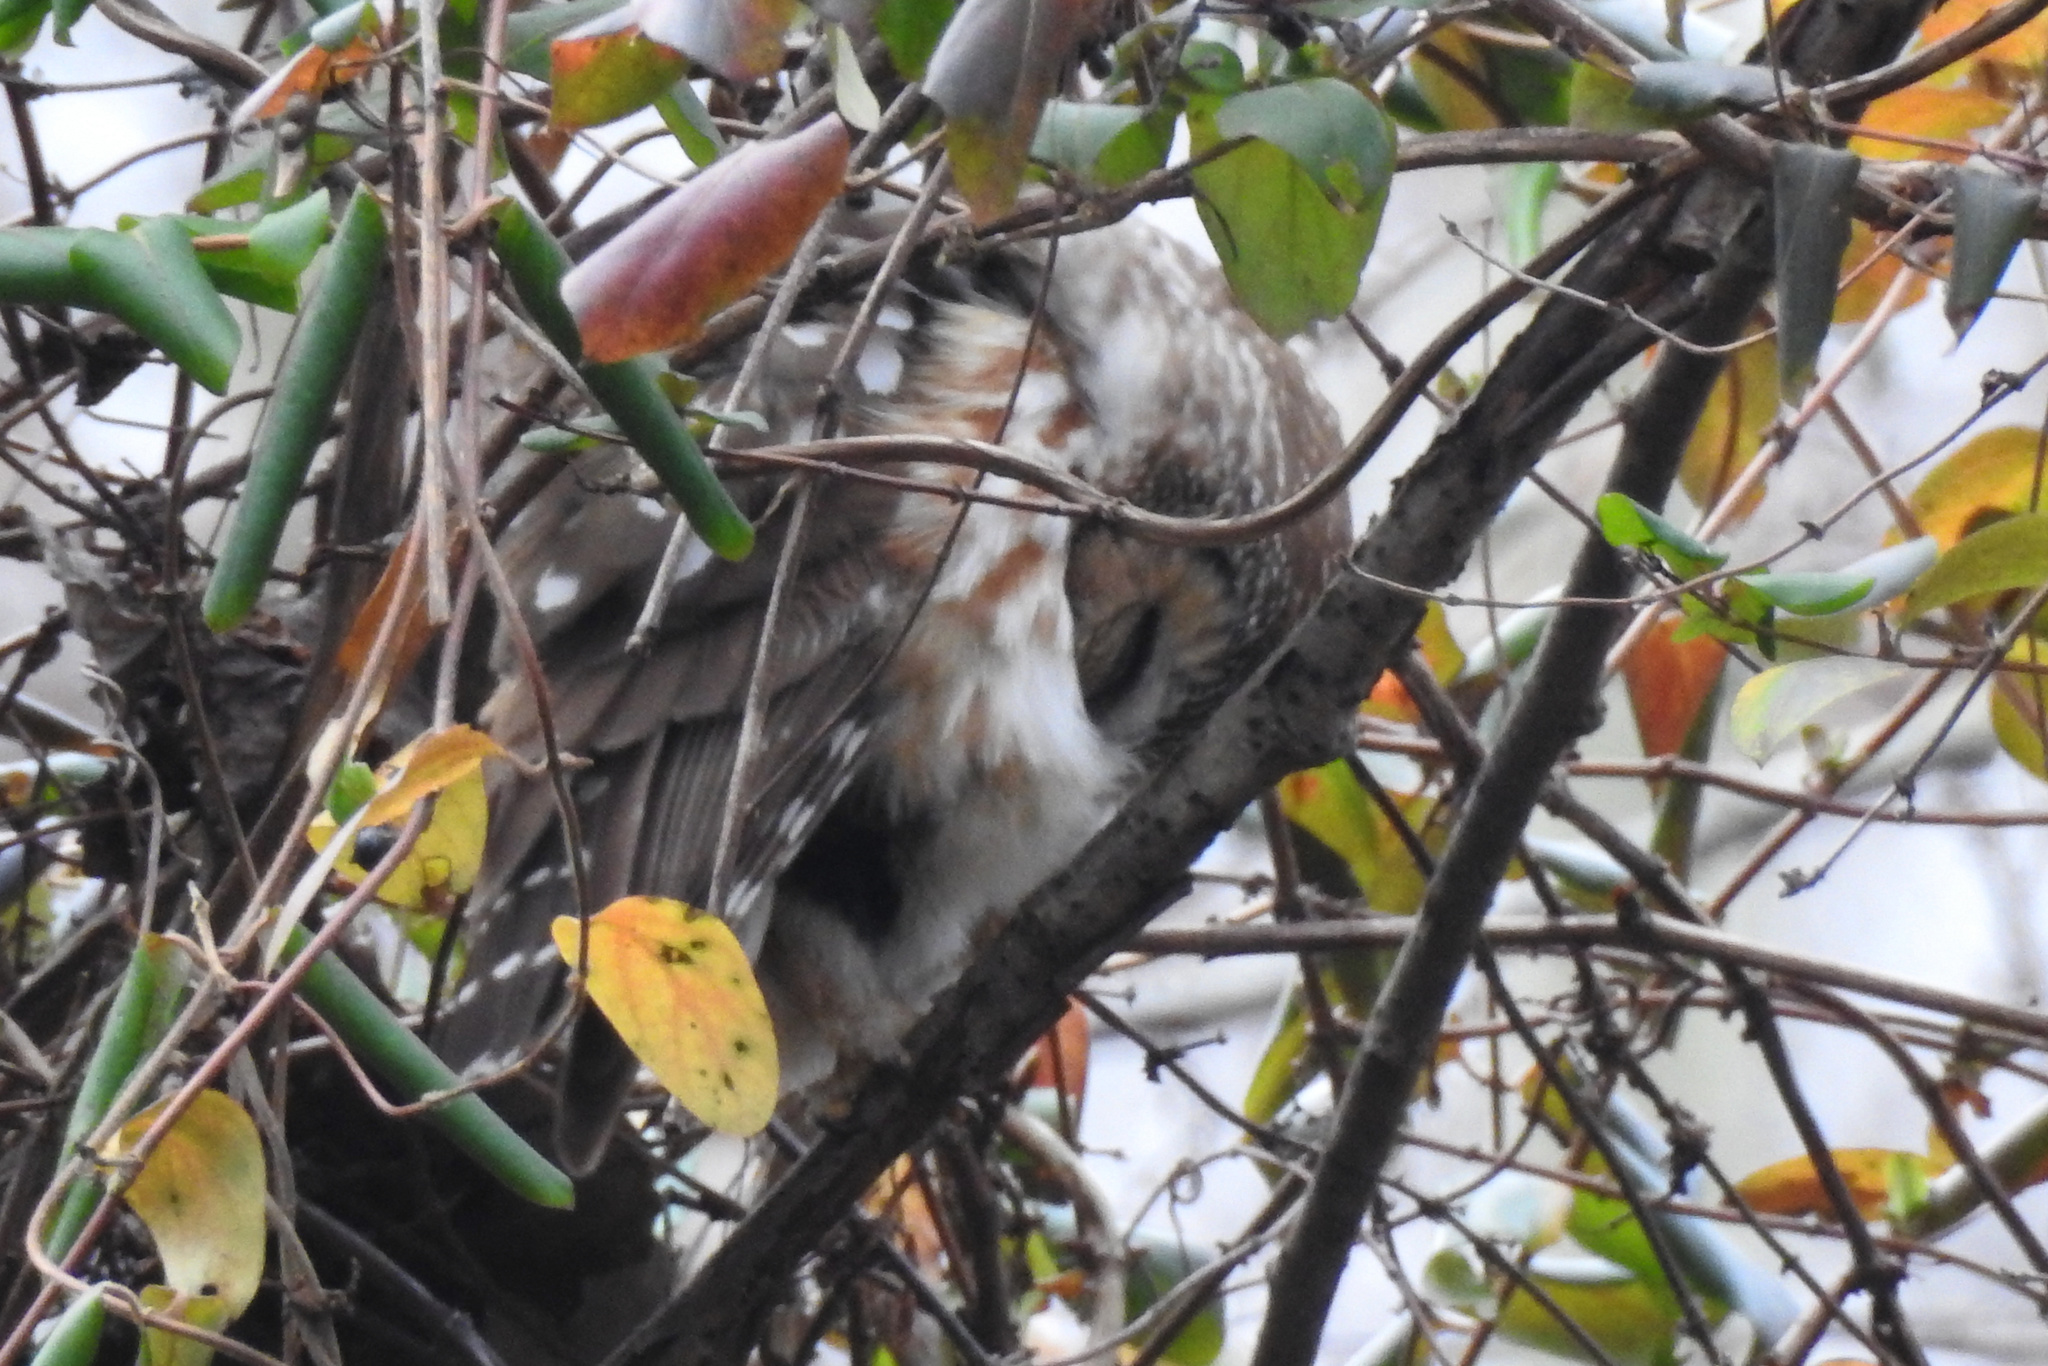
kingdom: Animalia
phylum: Chordata
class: Aves
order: Strigiformes
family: Strigidae
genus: Aegolius
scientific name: Aegolius acadicus
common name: Northern saw-whet owl
